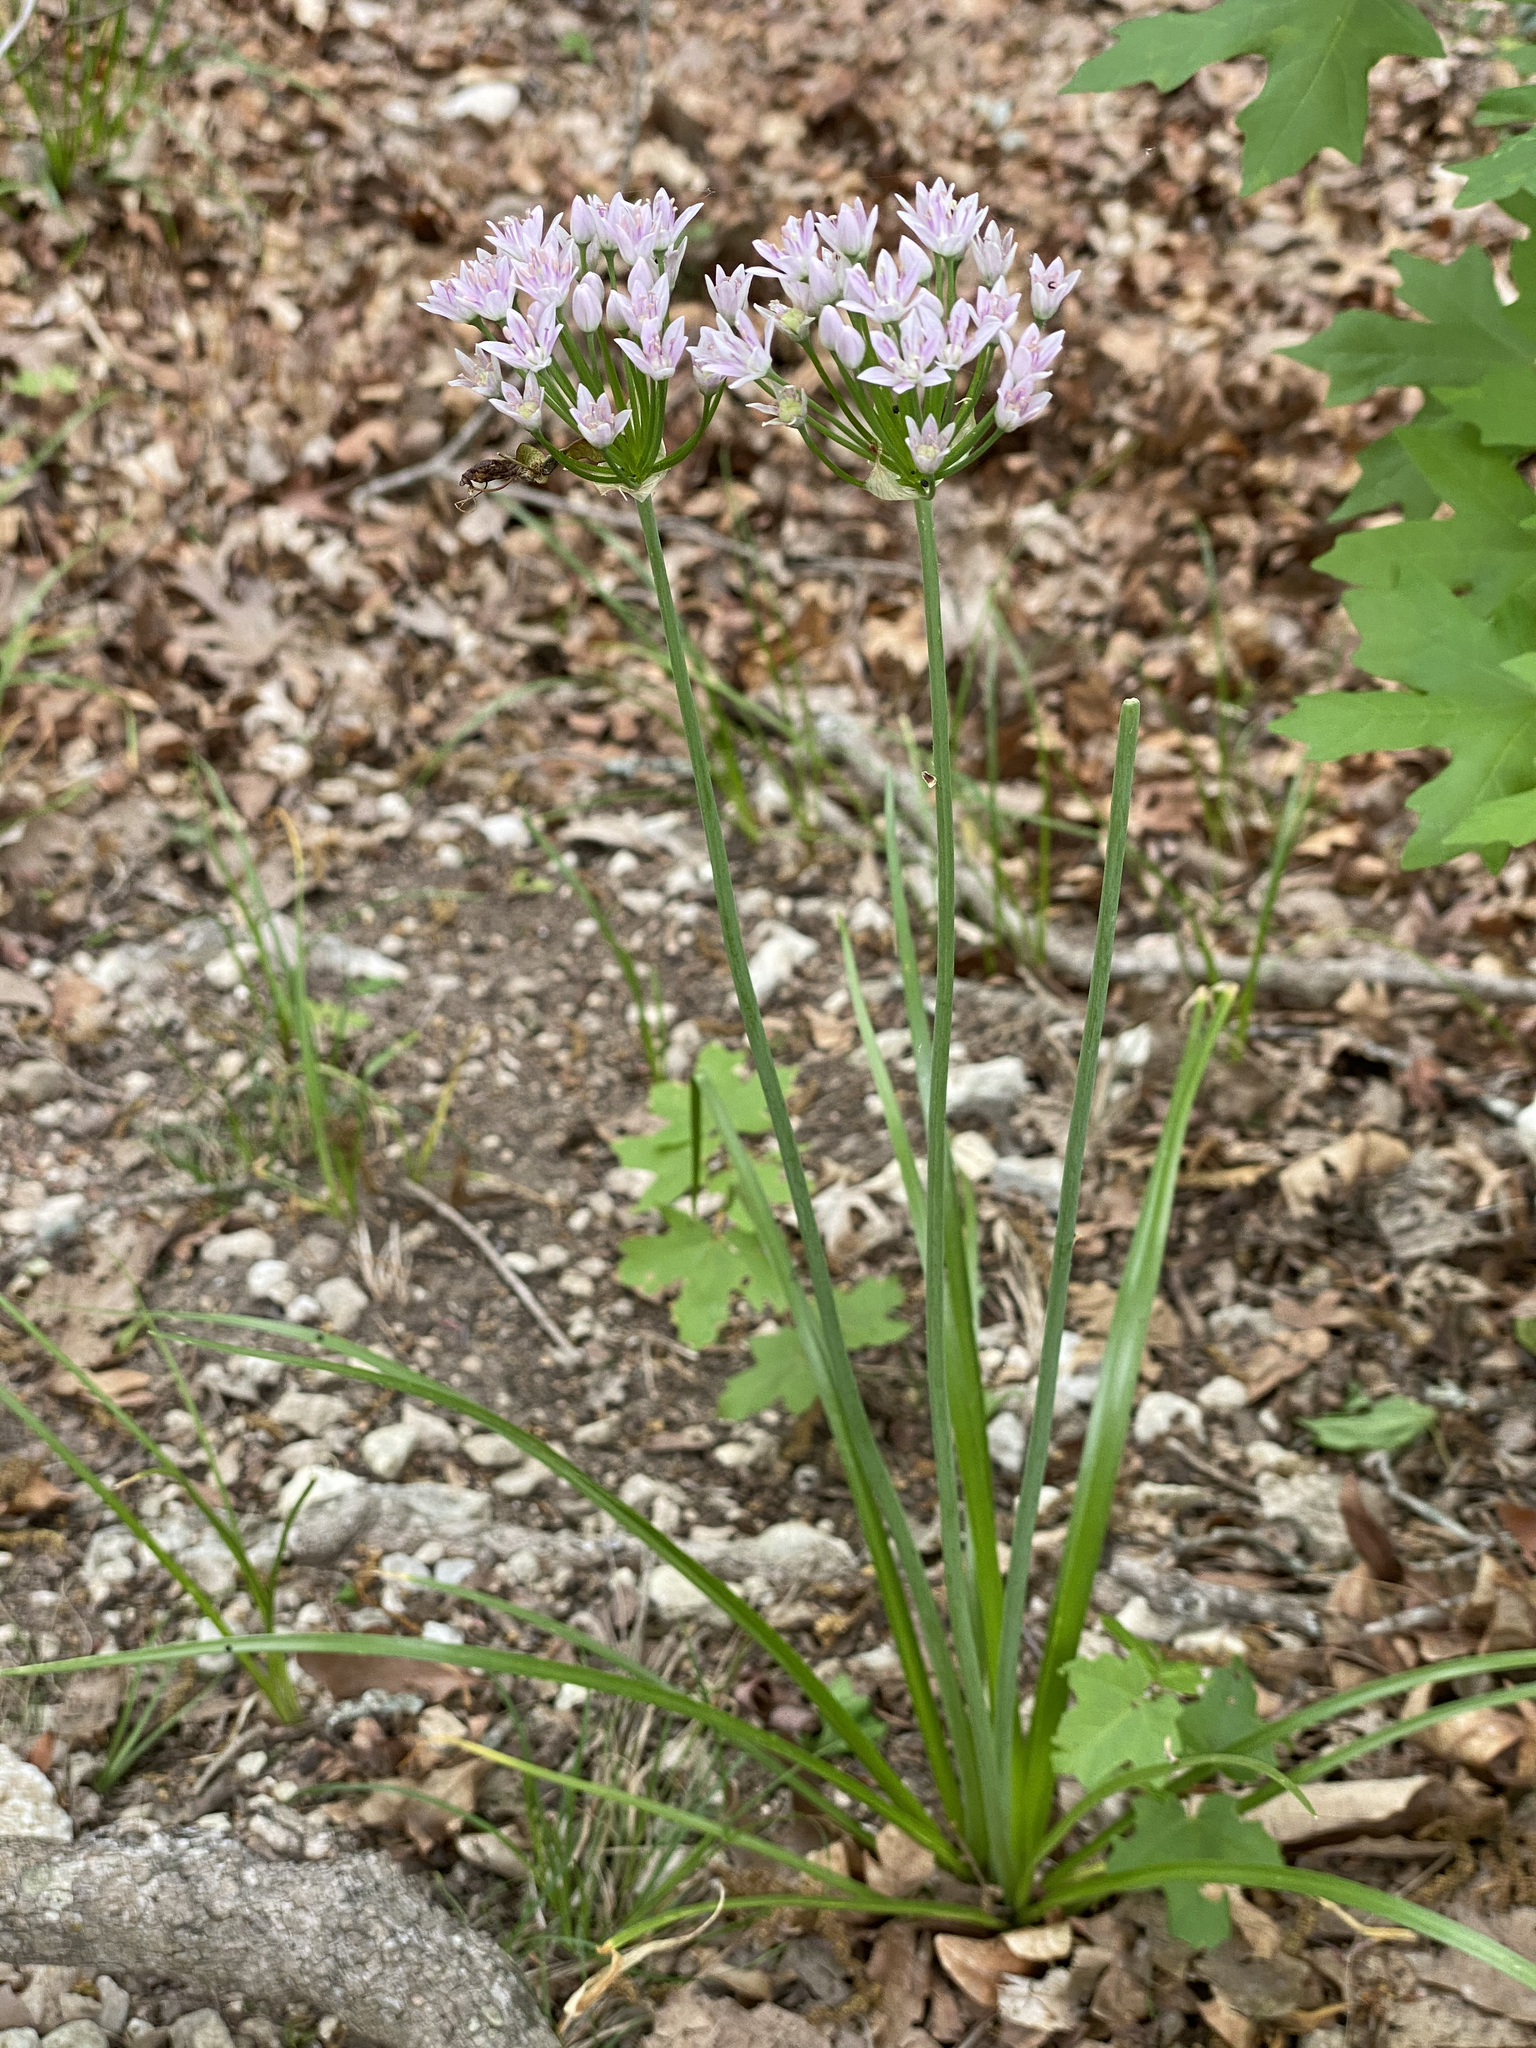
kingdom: Plantae
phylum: Tracheophyta
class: Liliopsida
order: Asparagales
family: Amaryllidaceae
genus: Allium
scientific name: Allium drummondii
